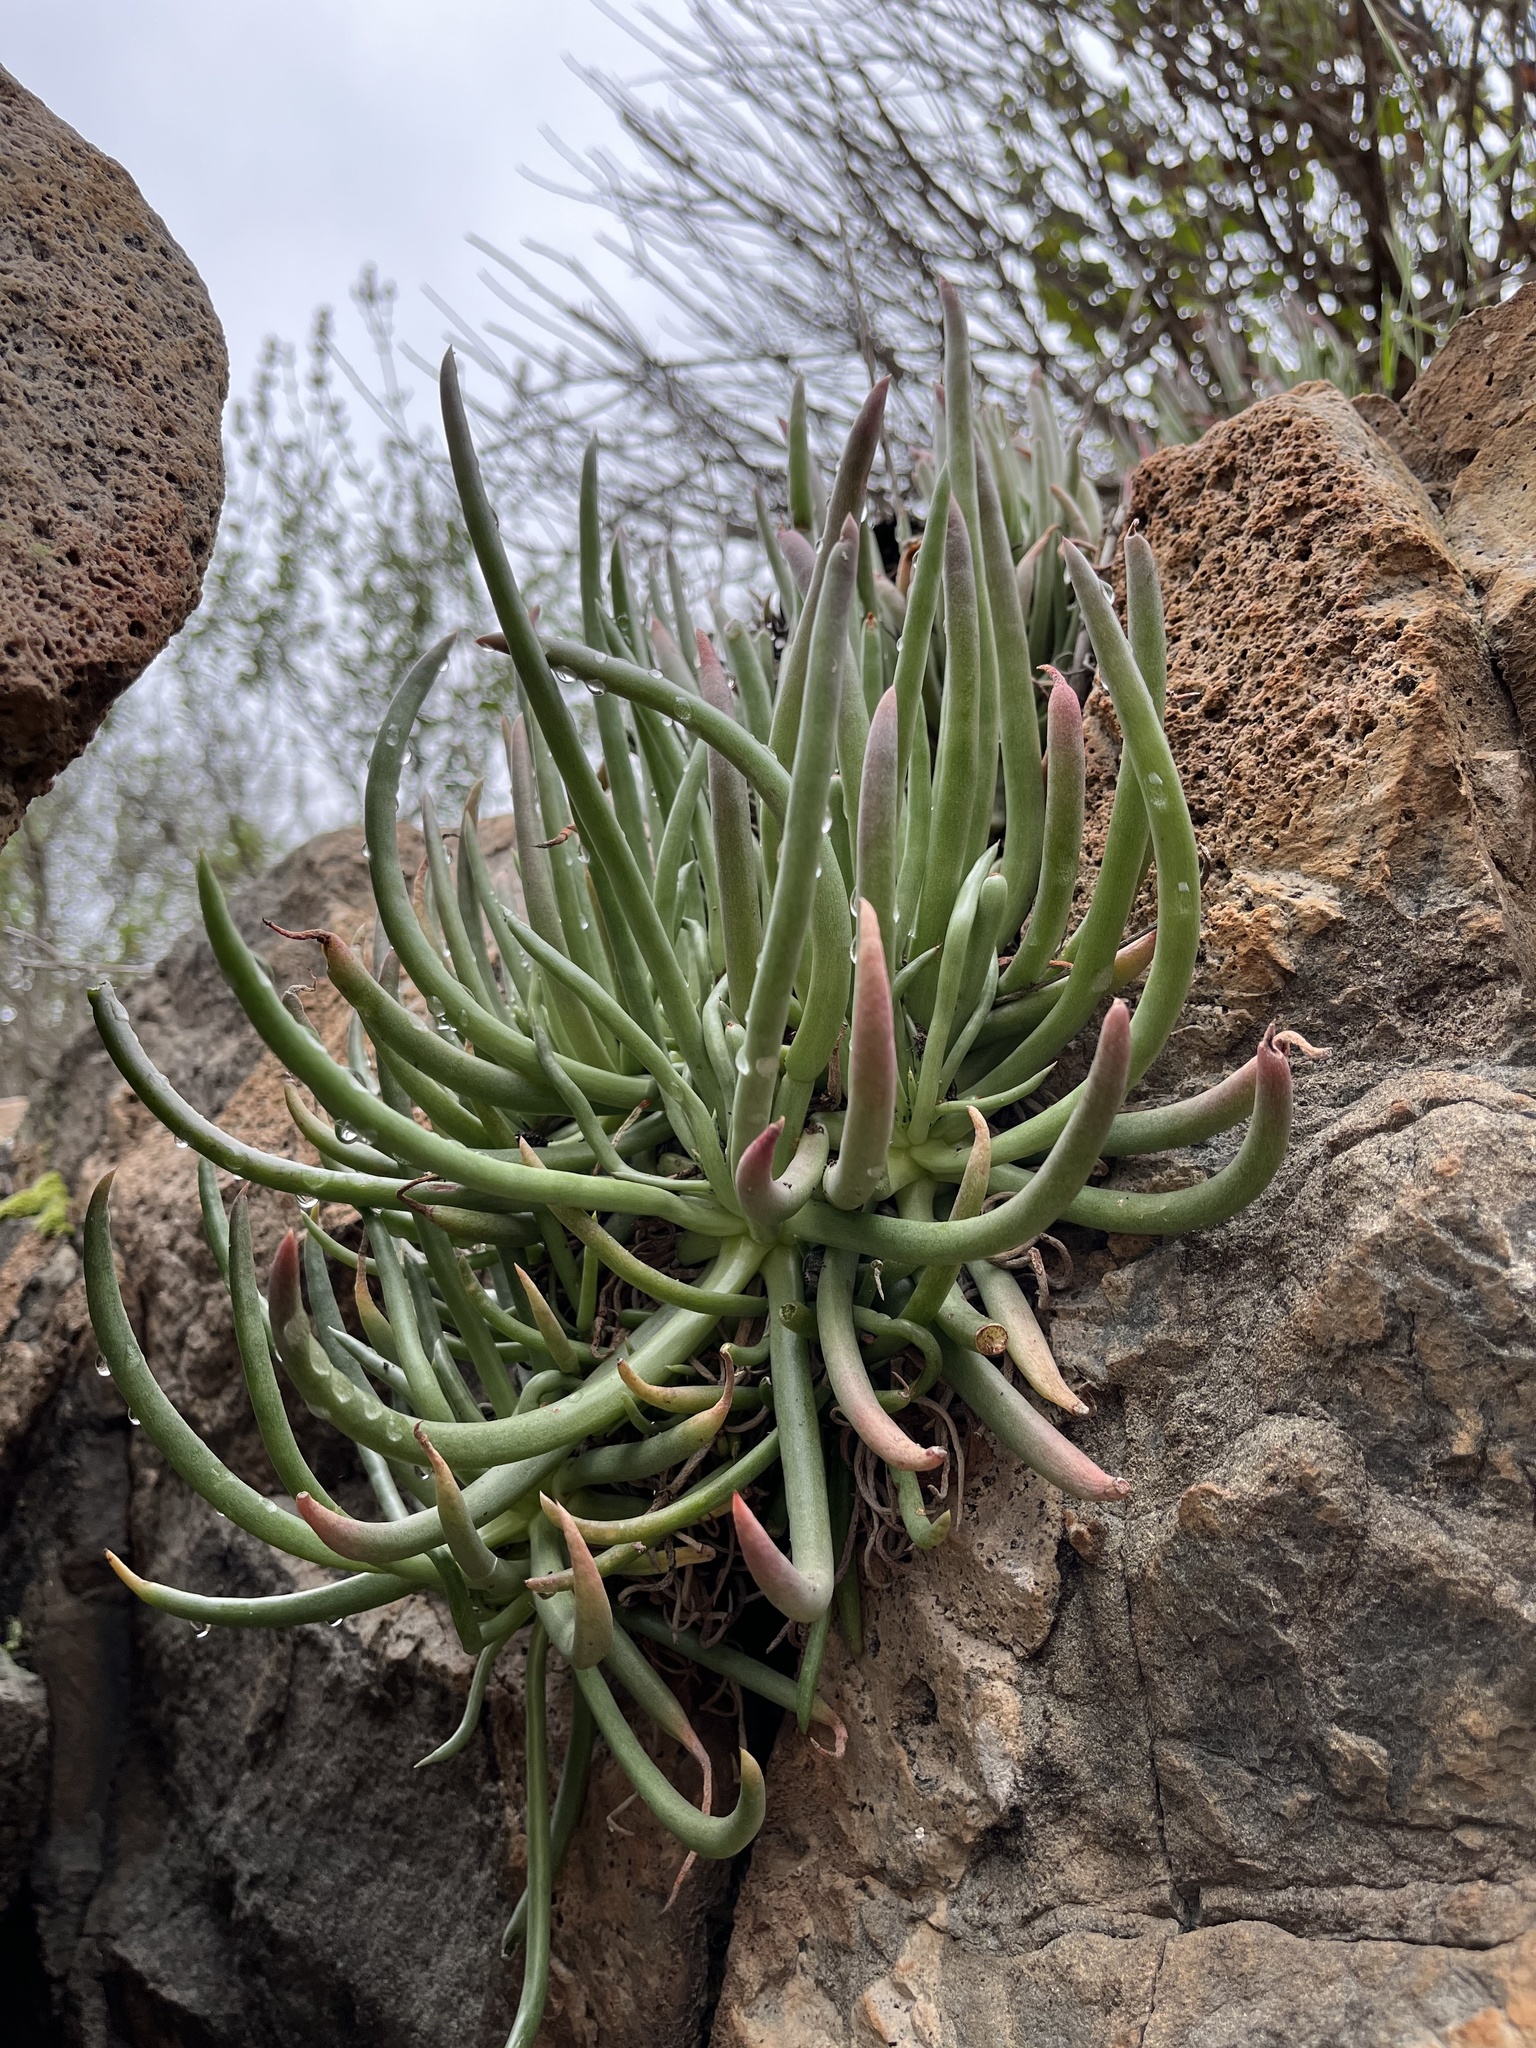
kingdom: Plantae
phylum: Tracheophyta
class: Magnoliopsida
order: Saxifragales
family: Crassulaceae
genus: Dudleya
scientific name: Dudleya edulis
